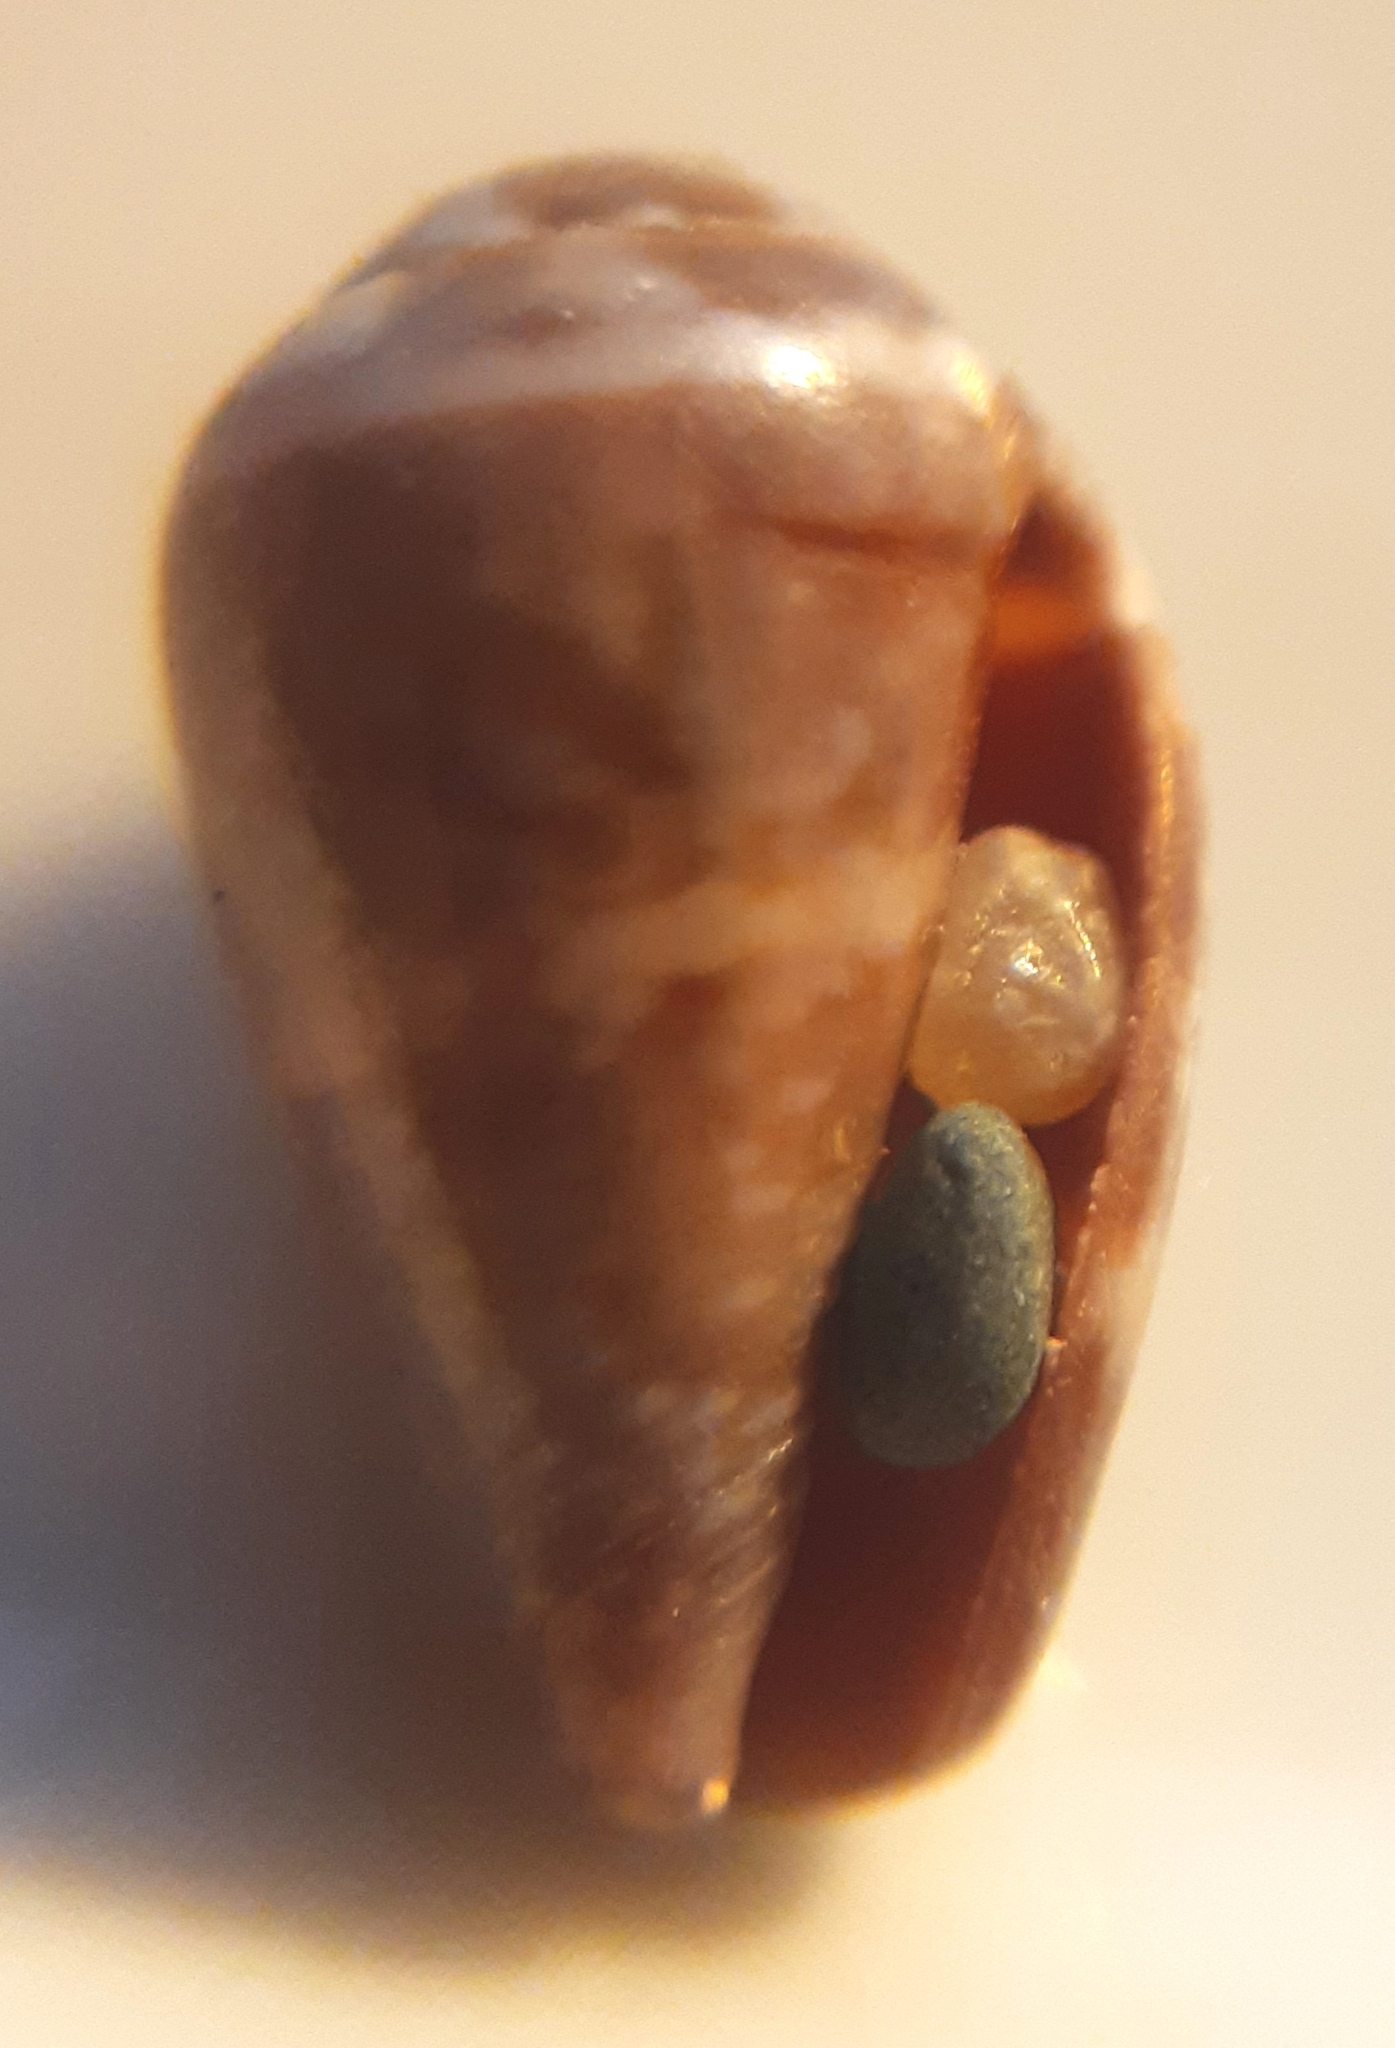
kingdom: Animalia
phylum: Mollusca
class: Gastropoda
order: Neogastropoda
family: Conidae
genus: Conus
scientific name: Conus ventricosus
